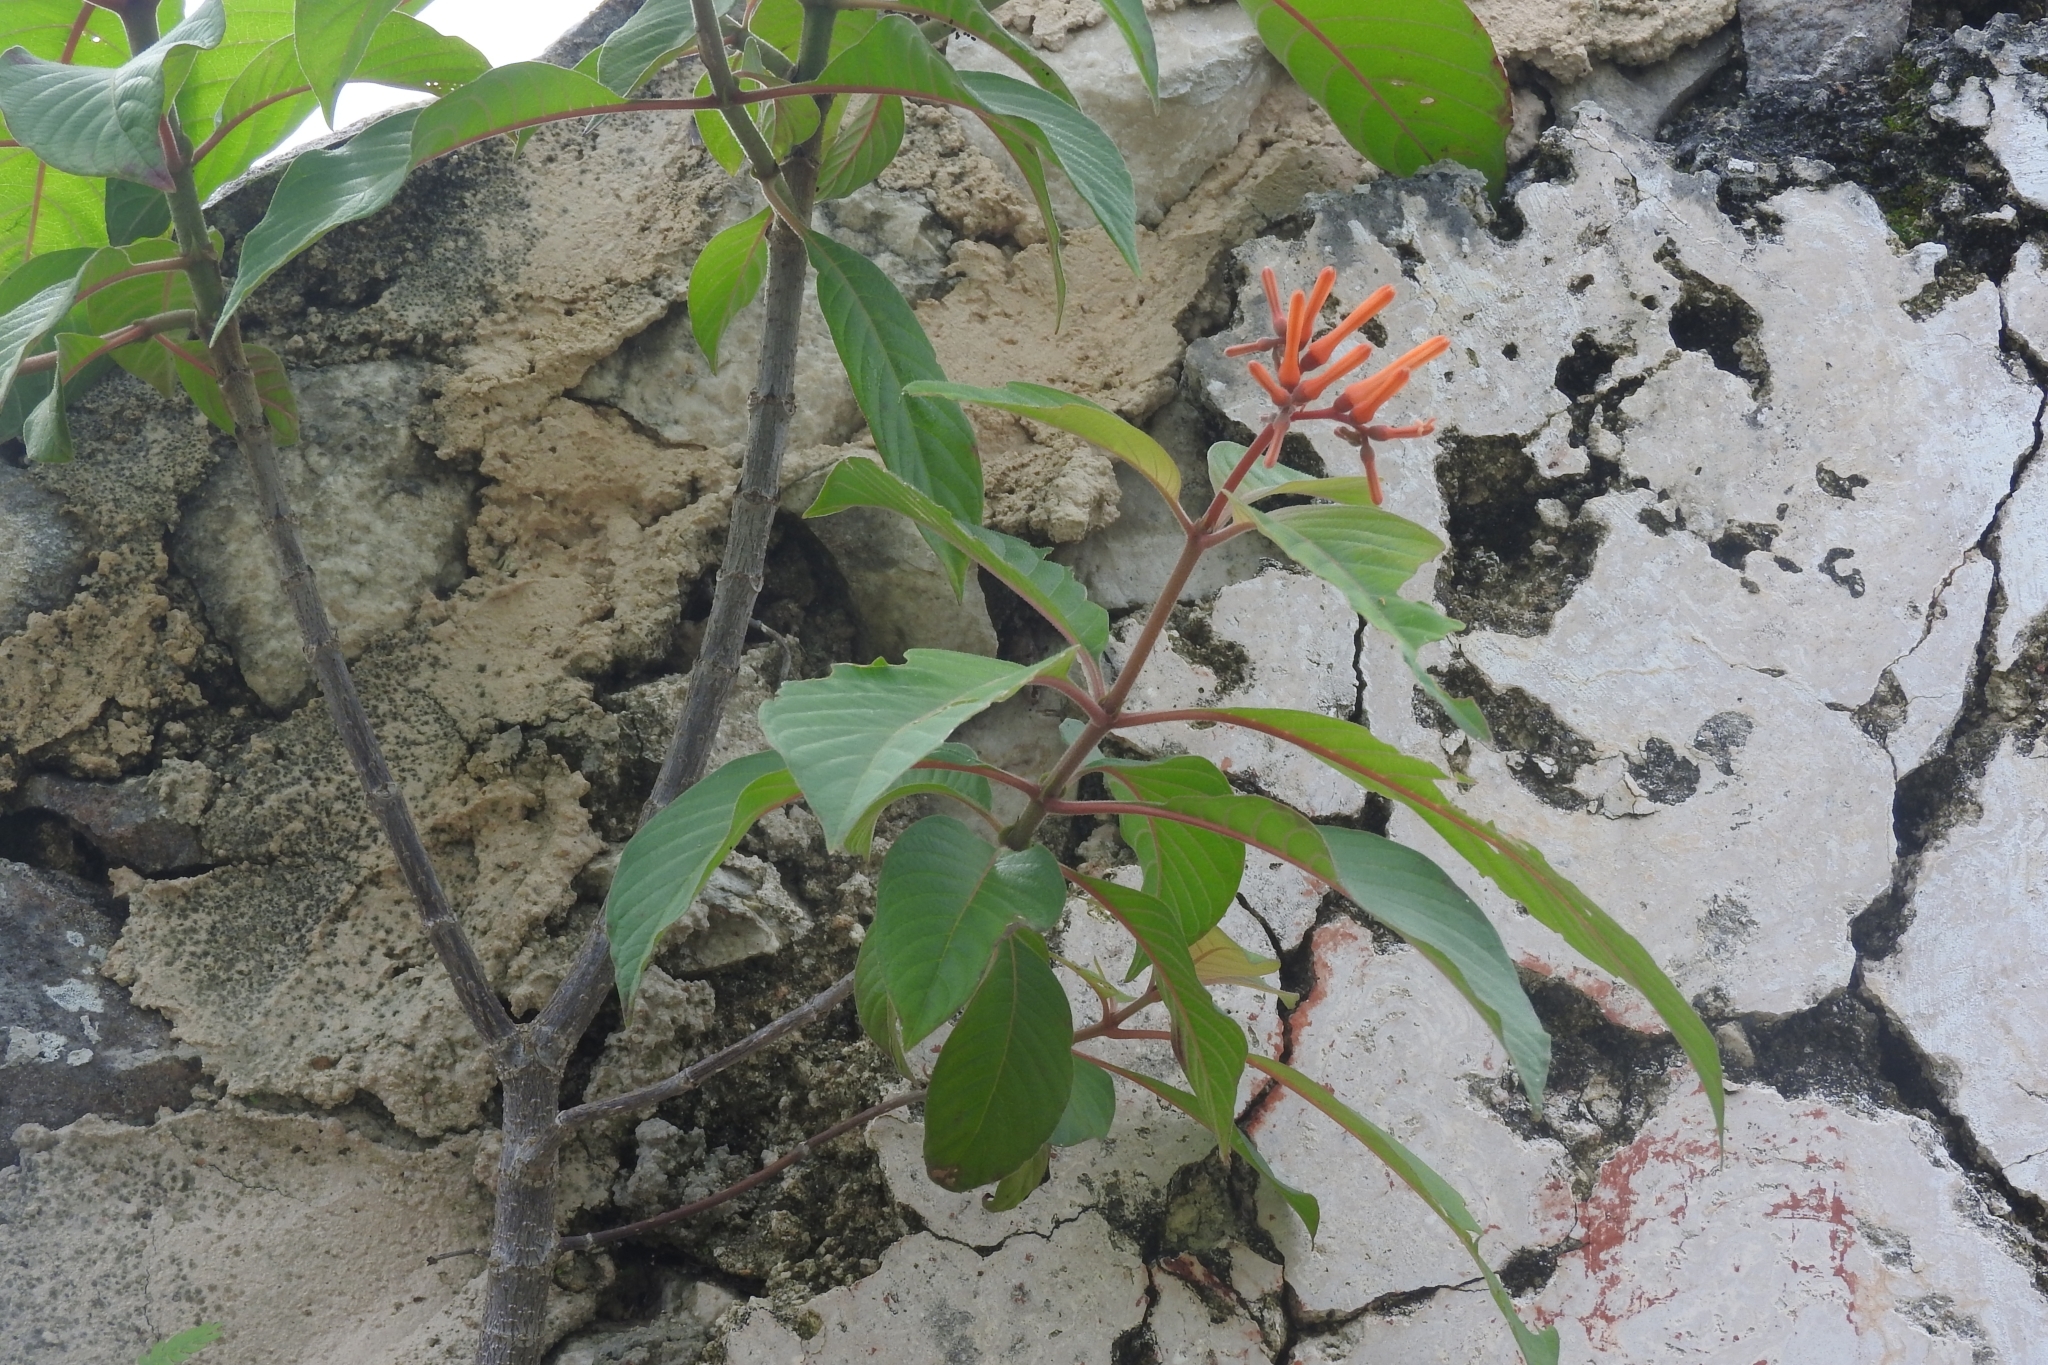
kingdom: Plantae
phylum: Tracheophyta
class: Magnoliopsida
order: Gentianales
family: Rubiaceae
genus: Hamelia
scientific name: Hamelia patens
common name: Redhead
